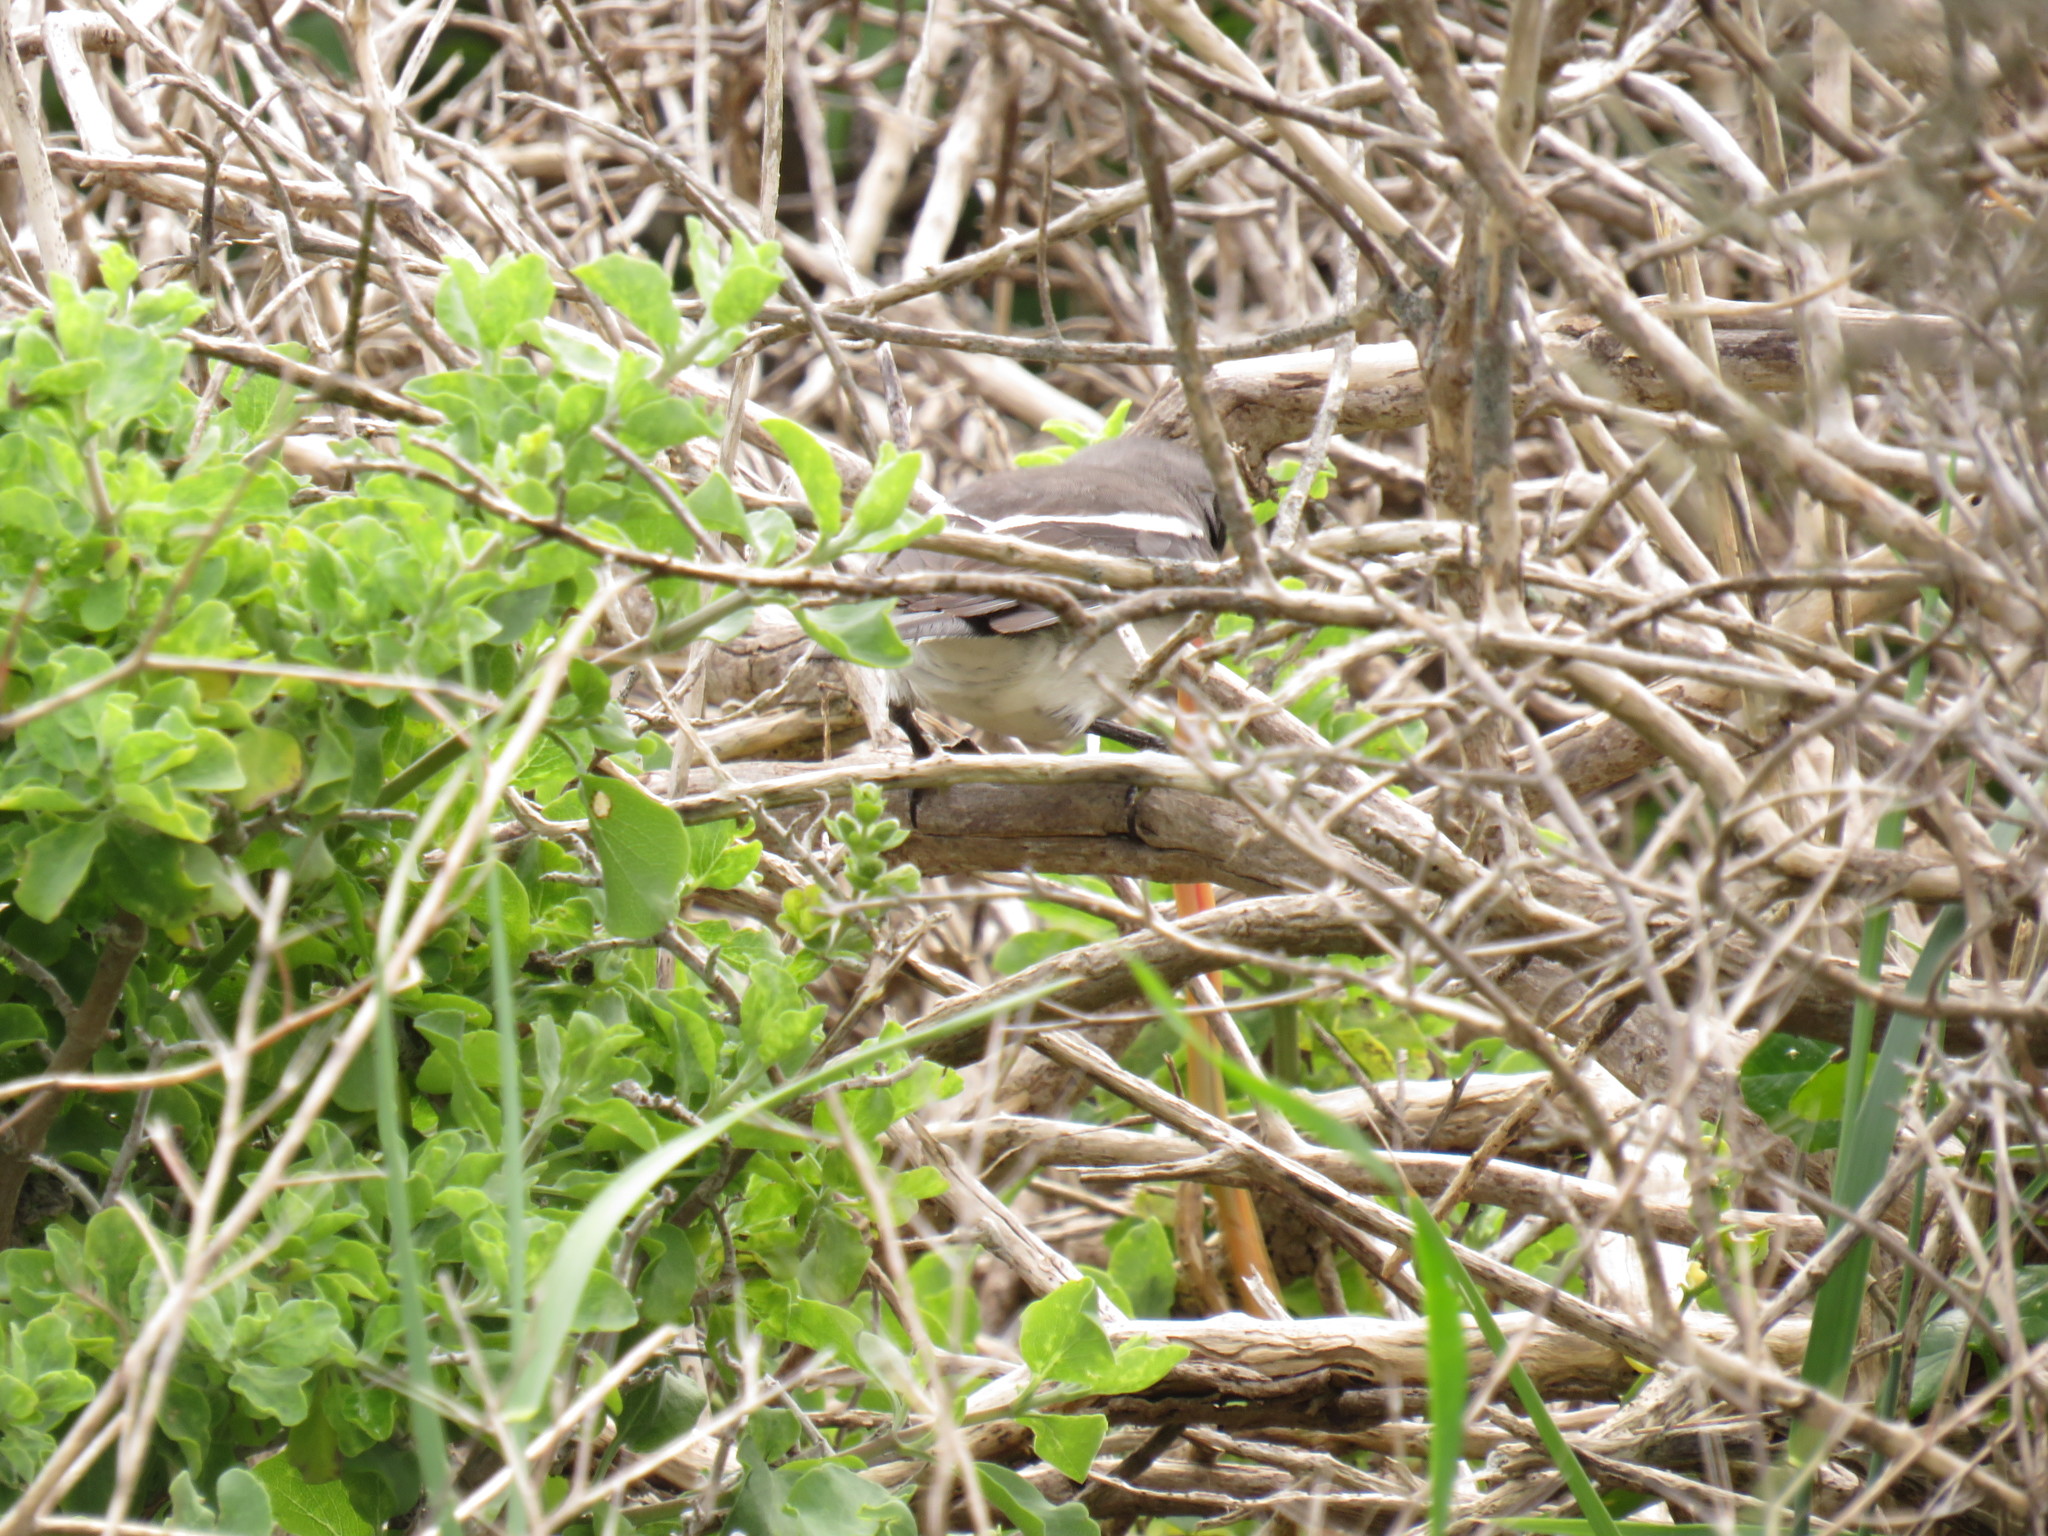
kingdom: Animalia
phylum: Chordata
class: Aves
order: Passeriformes
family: Laniidae
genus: Lanius
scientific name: Lanius collaris
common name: Southern fiscal
